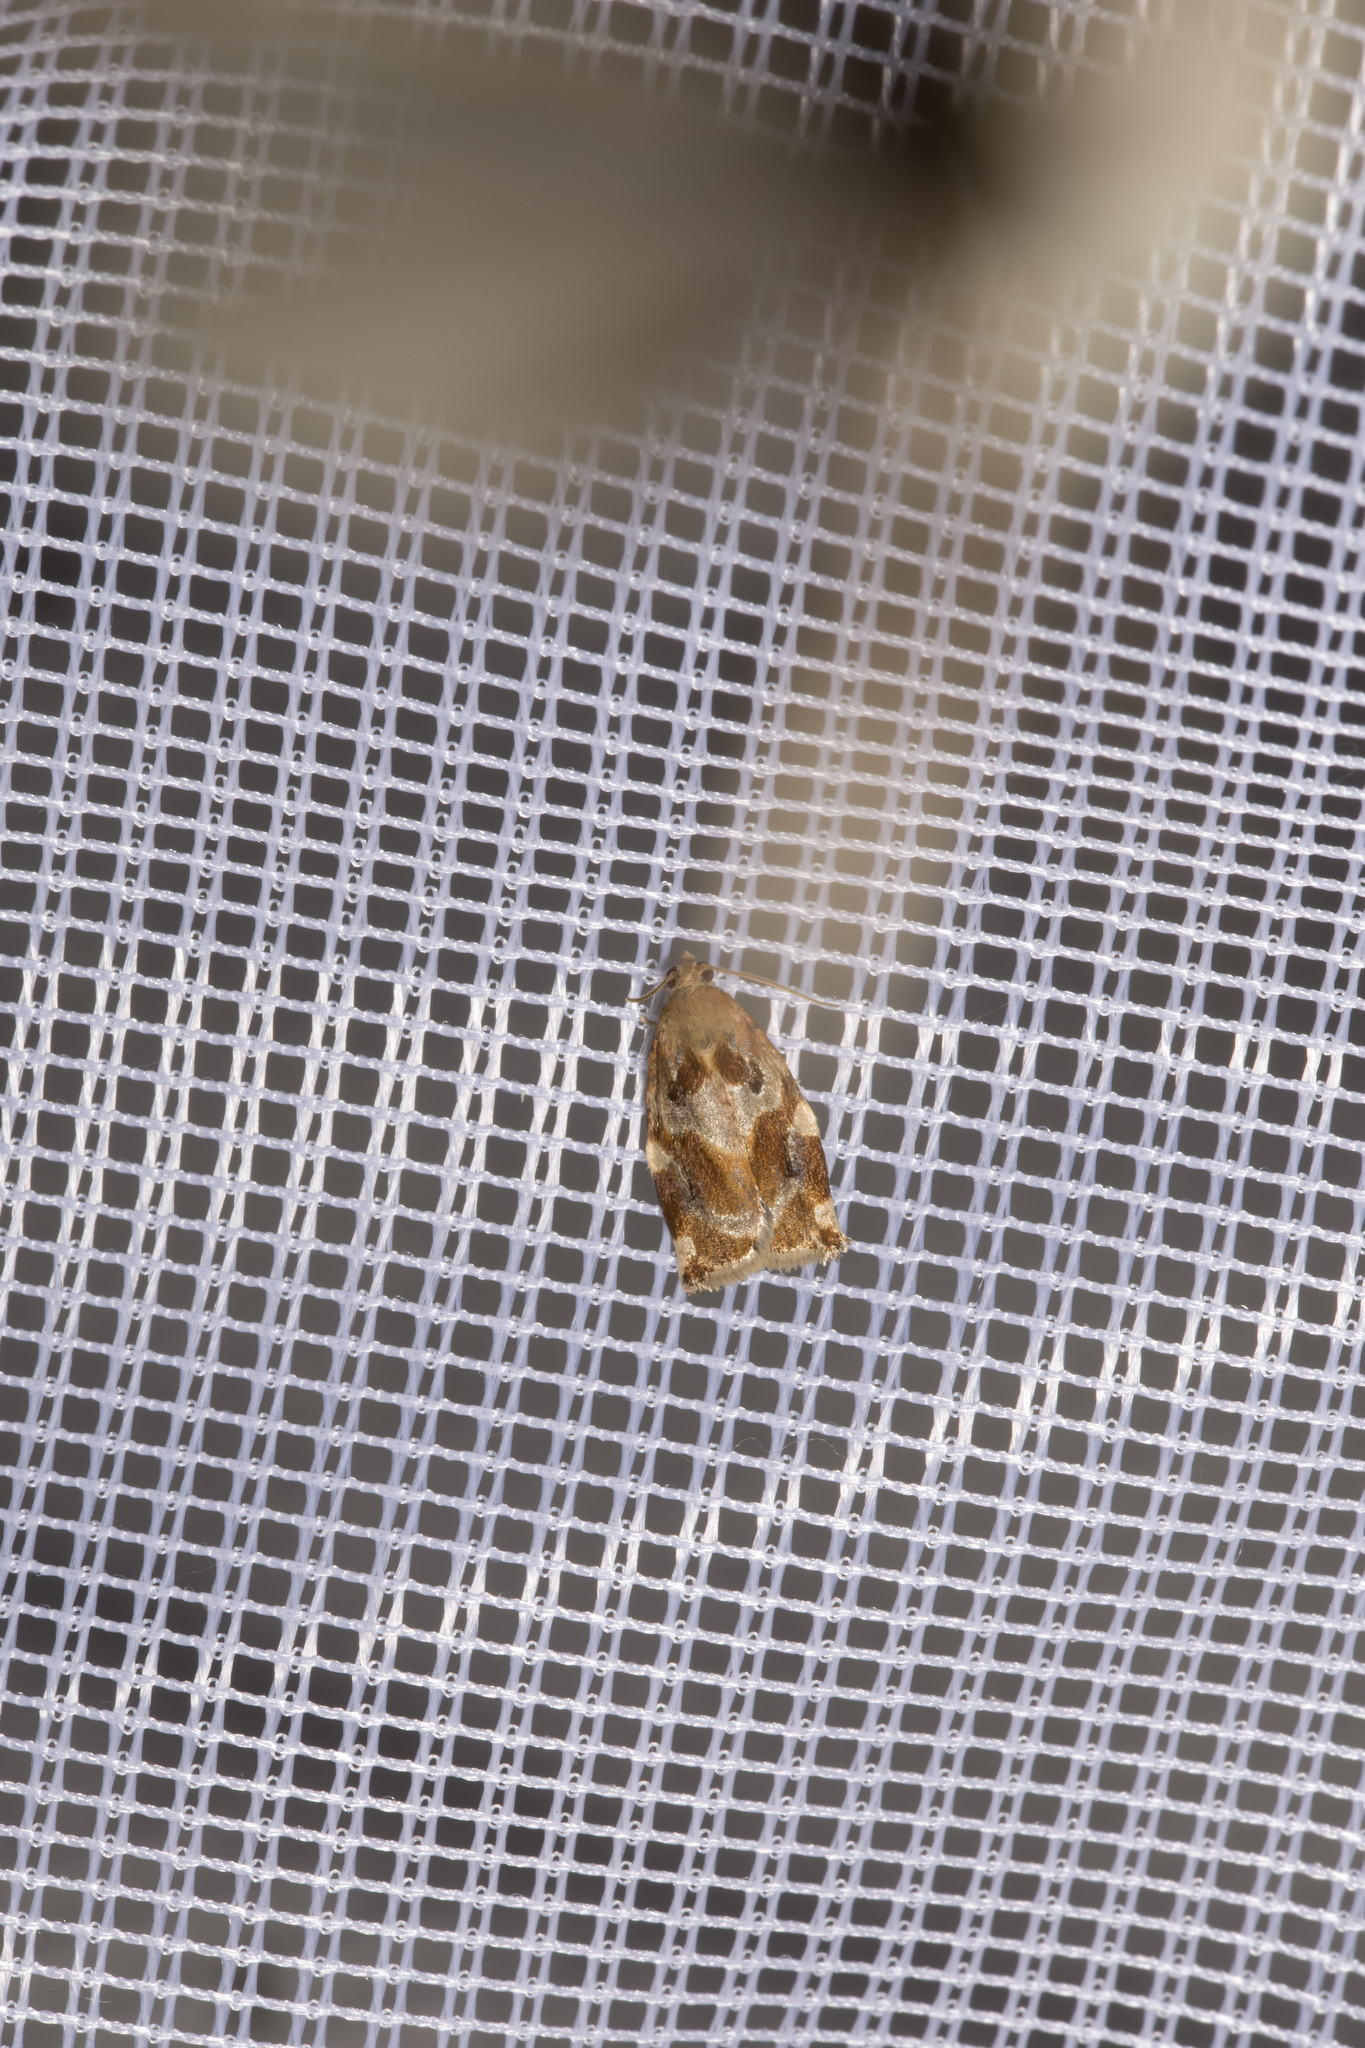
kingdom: Animalia
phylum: Arthropoda
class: Insecta
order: Lepidoptera
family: Tortricidae
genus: Archips
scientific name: Archips xylosteana
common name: Variegated golden tortrix
